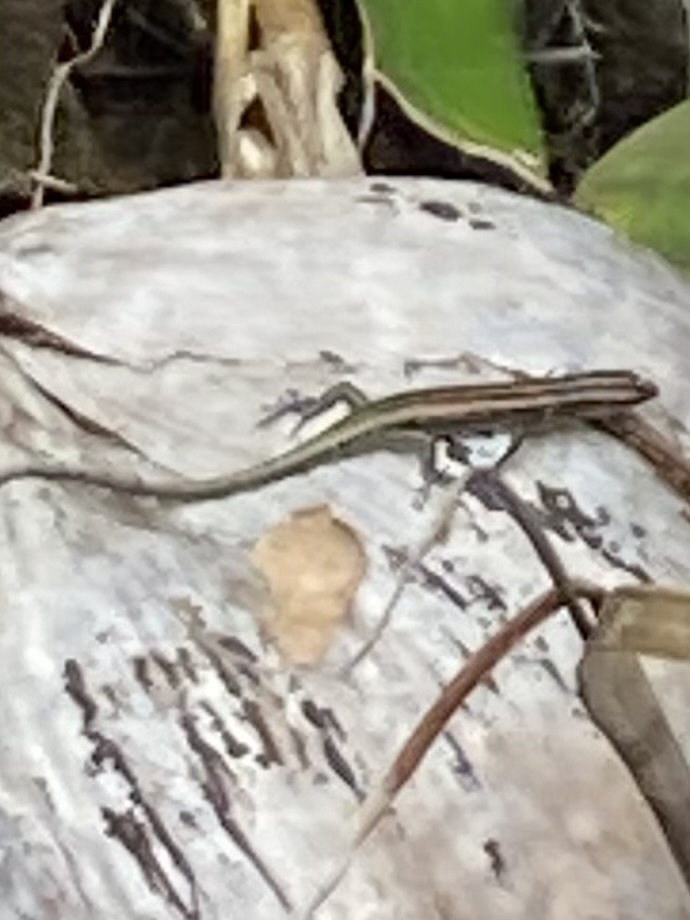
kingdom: Animalia
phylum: Chordata
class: Squamata
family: Scincidae
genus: Emoia
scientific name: Emoia cyanura
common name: Copper-tailed skink
